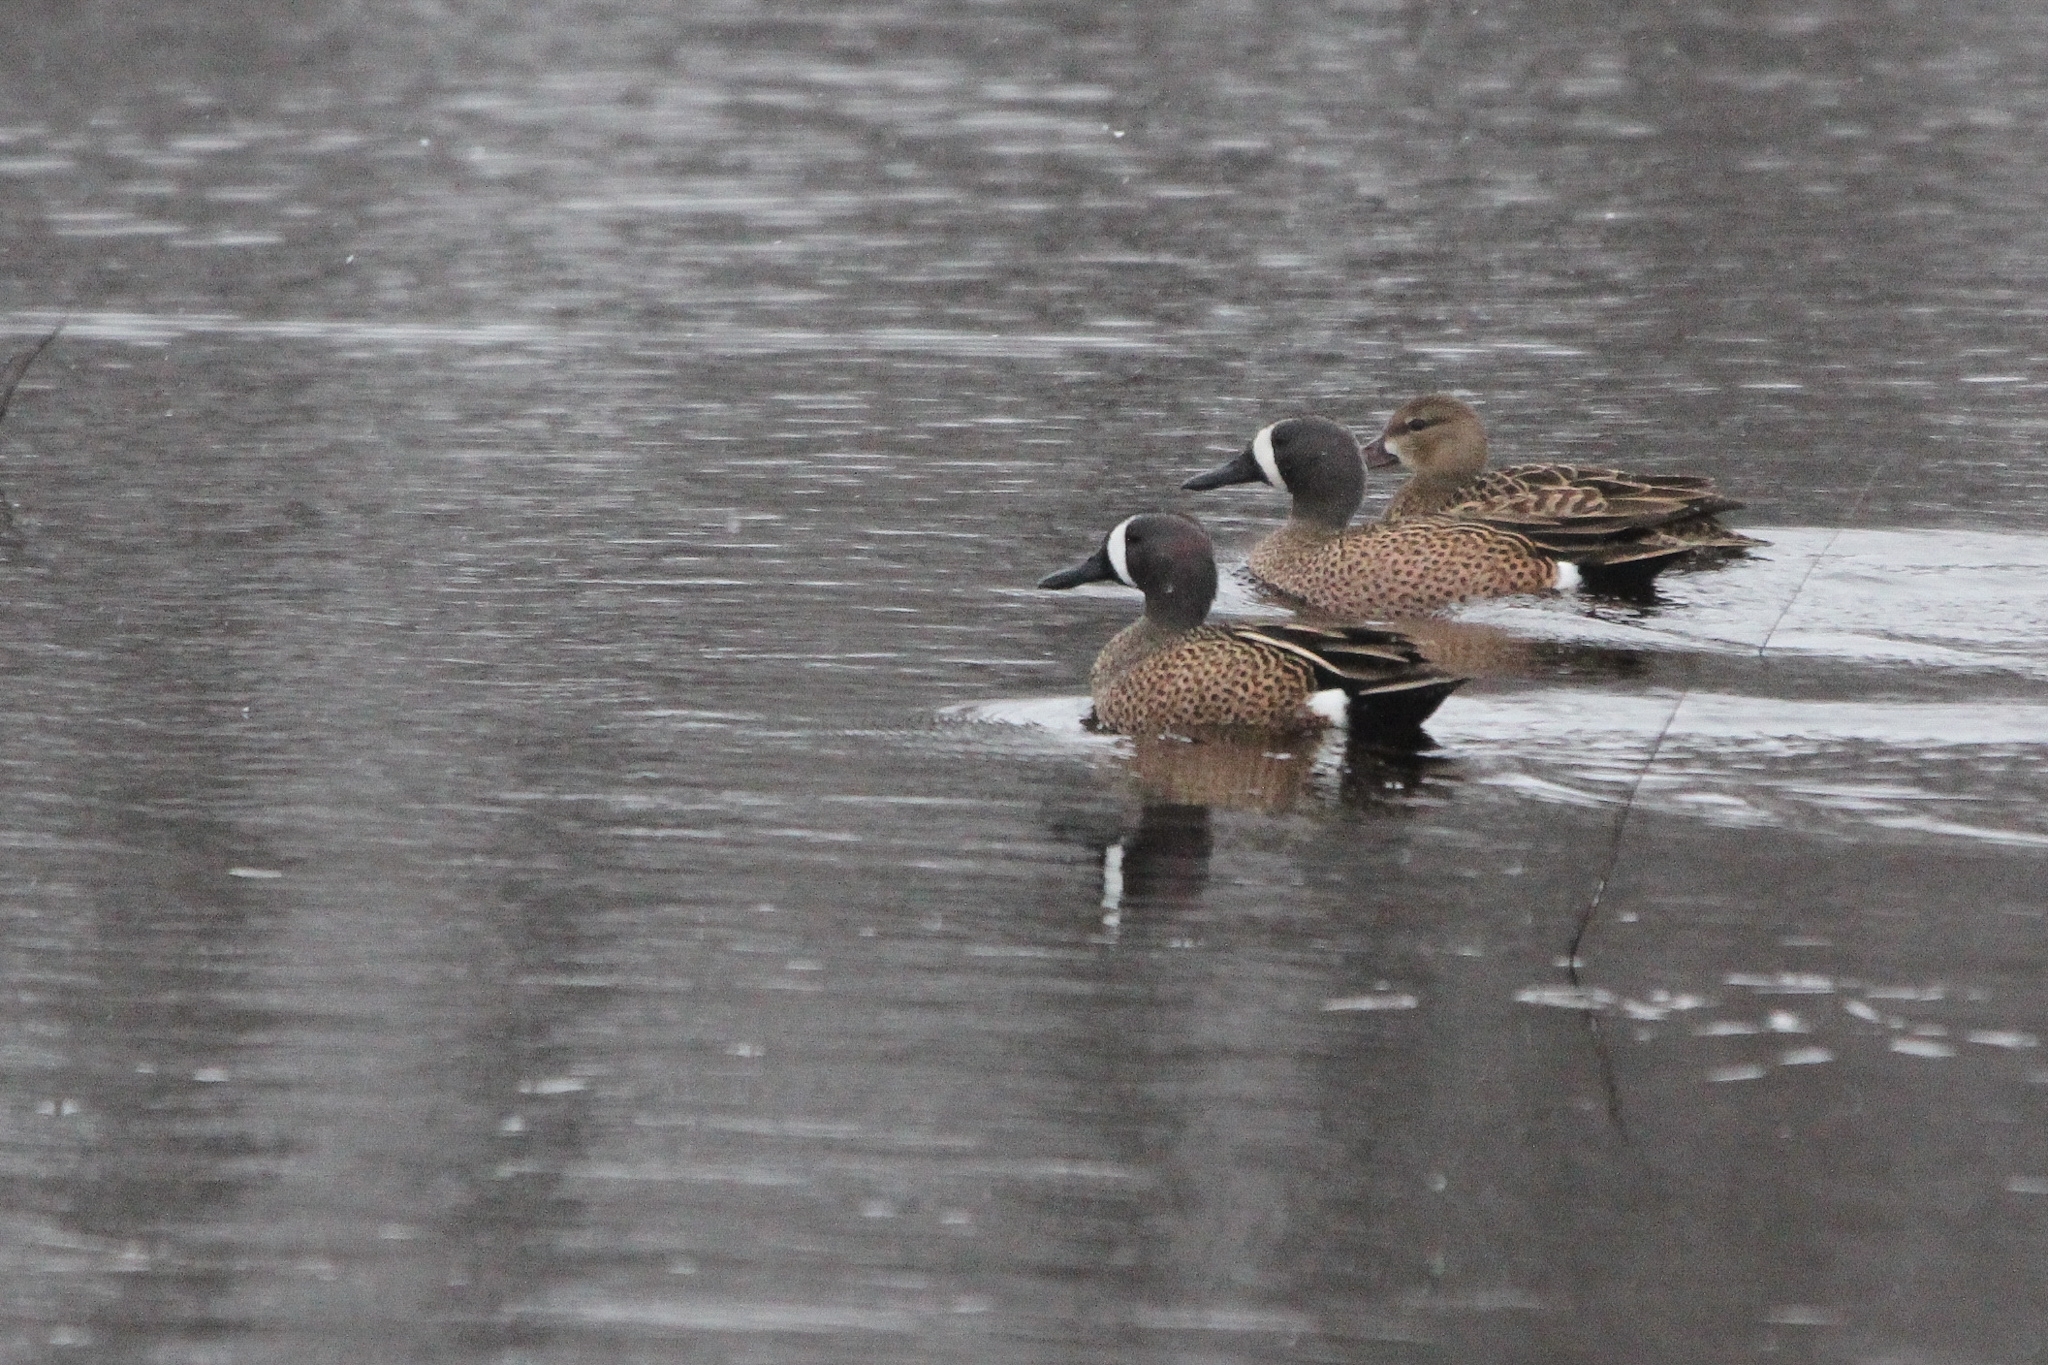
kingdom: Animalia
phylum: Chordata
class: Aves
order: Anseriformes
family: Anatidae
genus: Spatula
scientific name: Spatula discors
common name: Blue-winged teal
